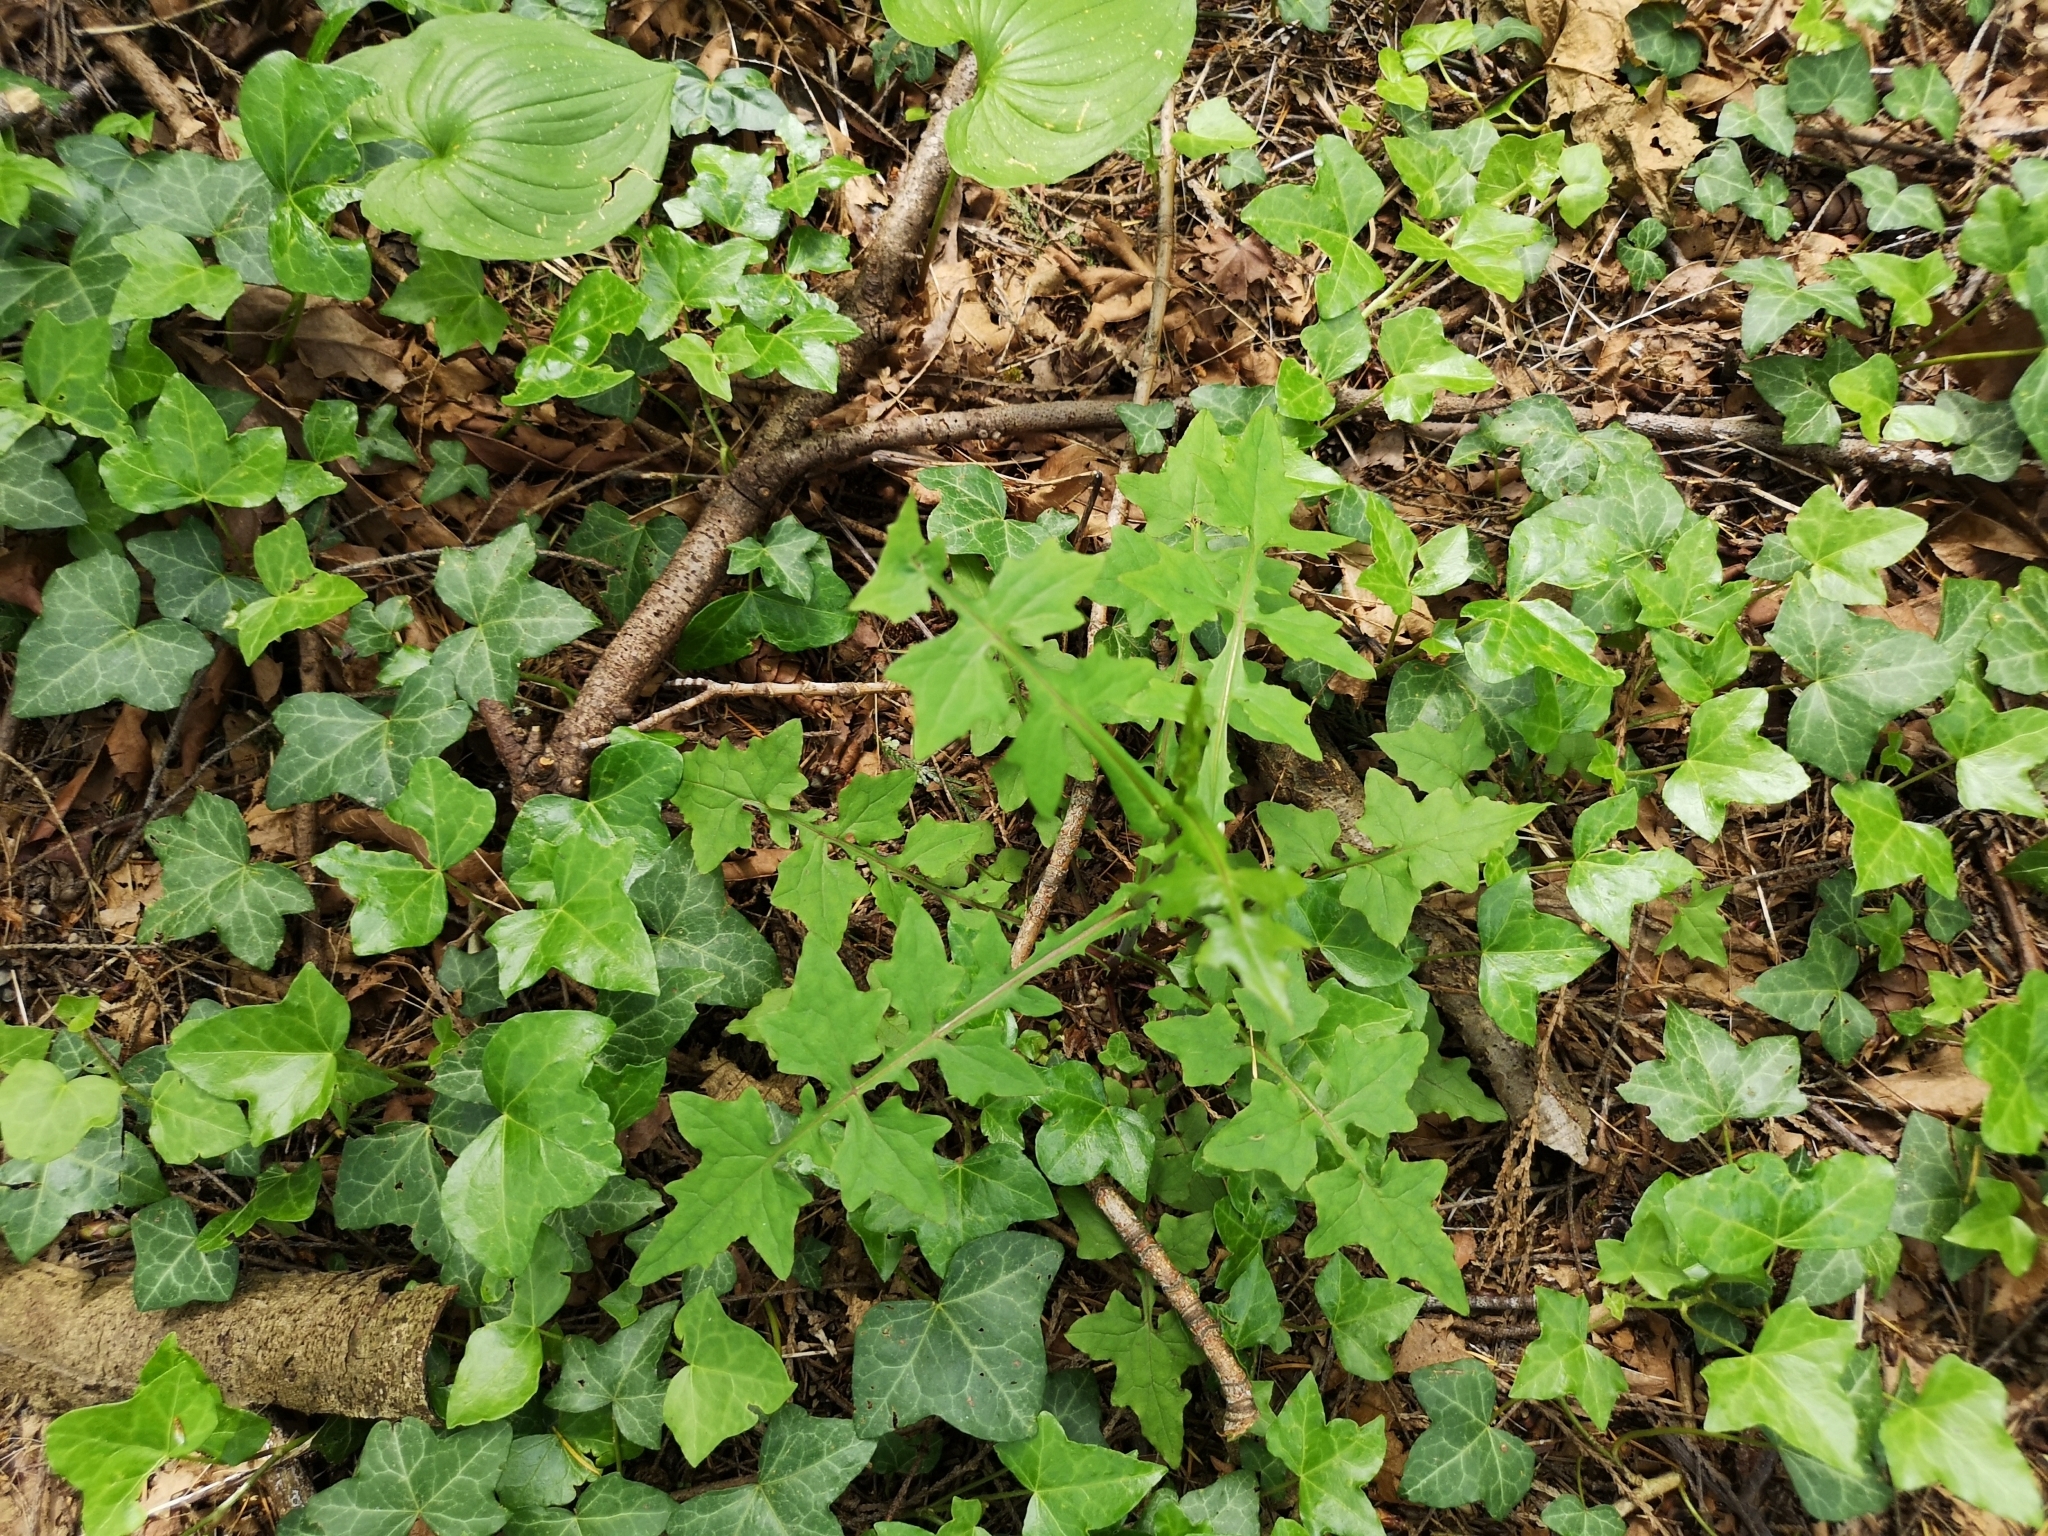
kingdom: Plantae
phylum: Tracheophyta
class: Magnoliopsida
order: Asterales
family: Asteraceae
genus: Mycelis
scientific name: Mycelis muralis
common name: Wall lettuce
